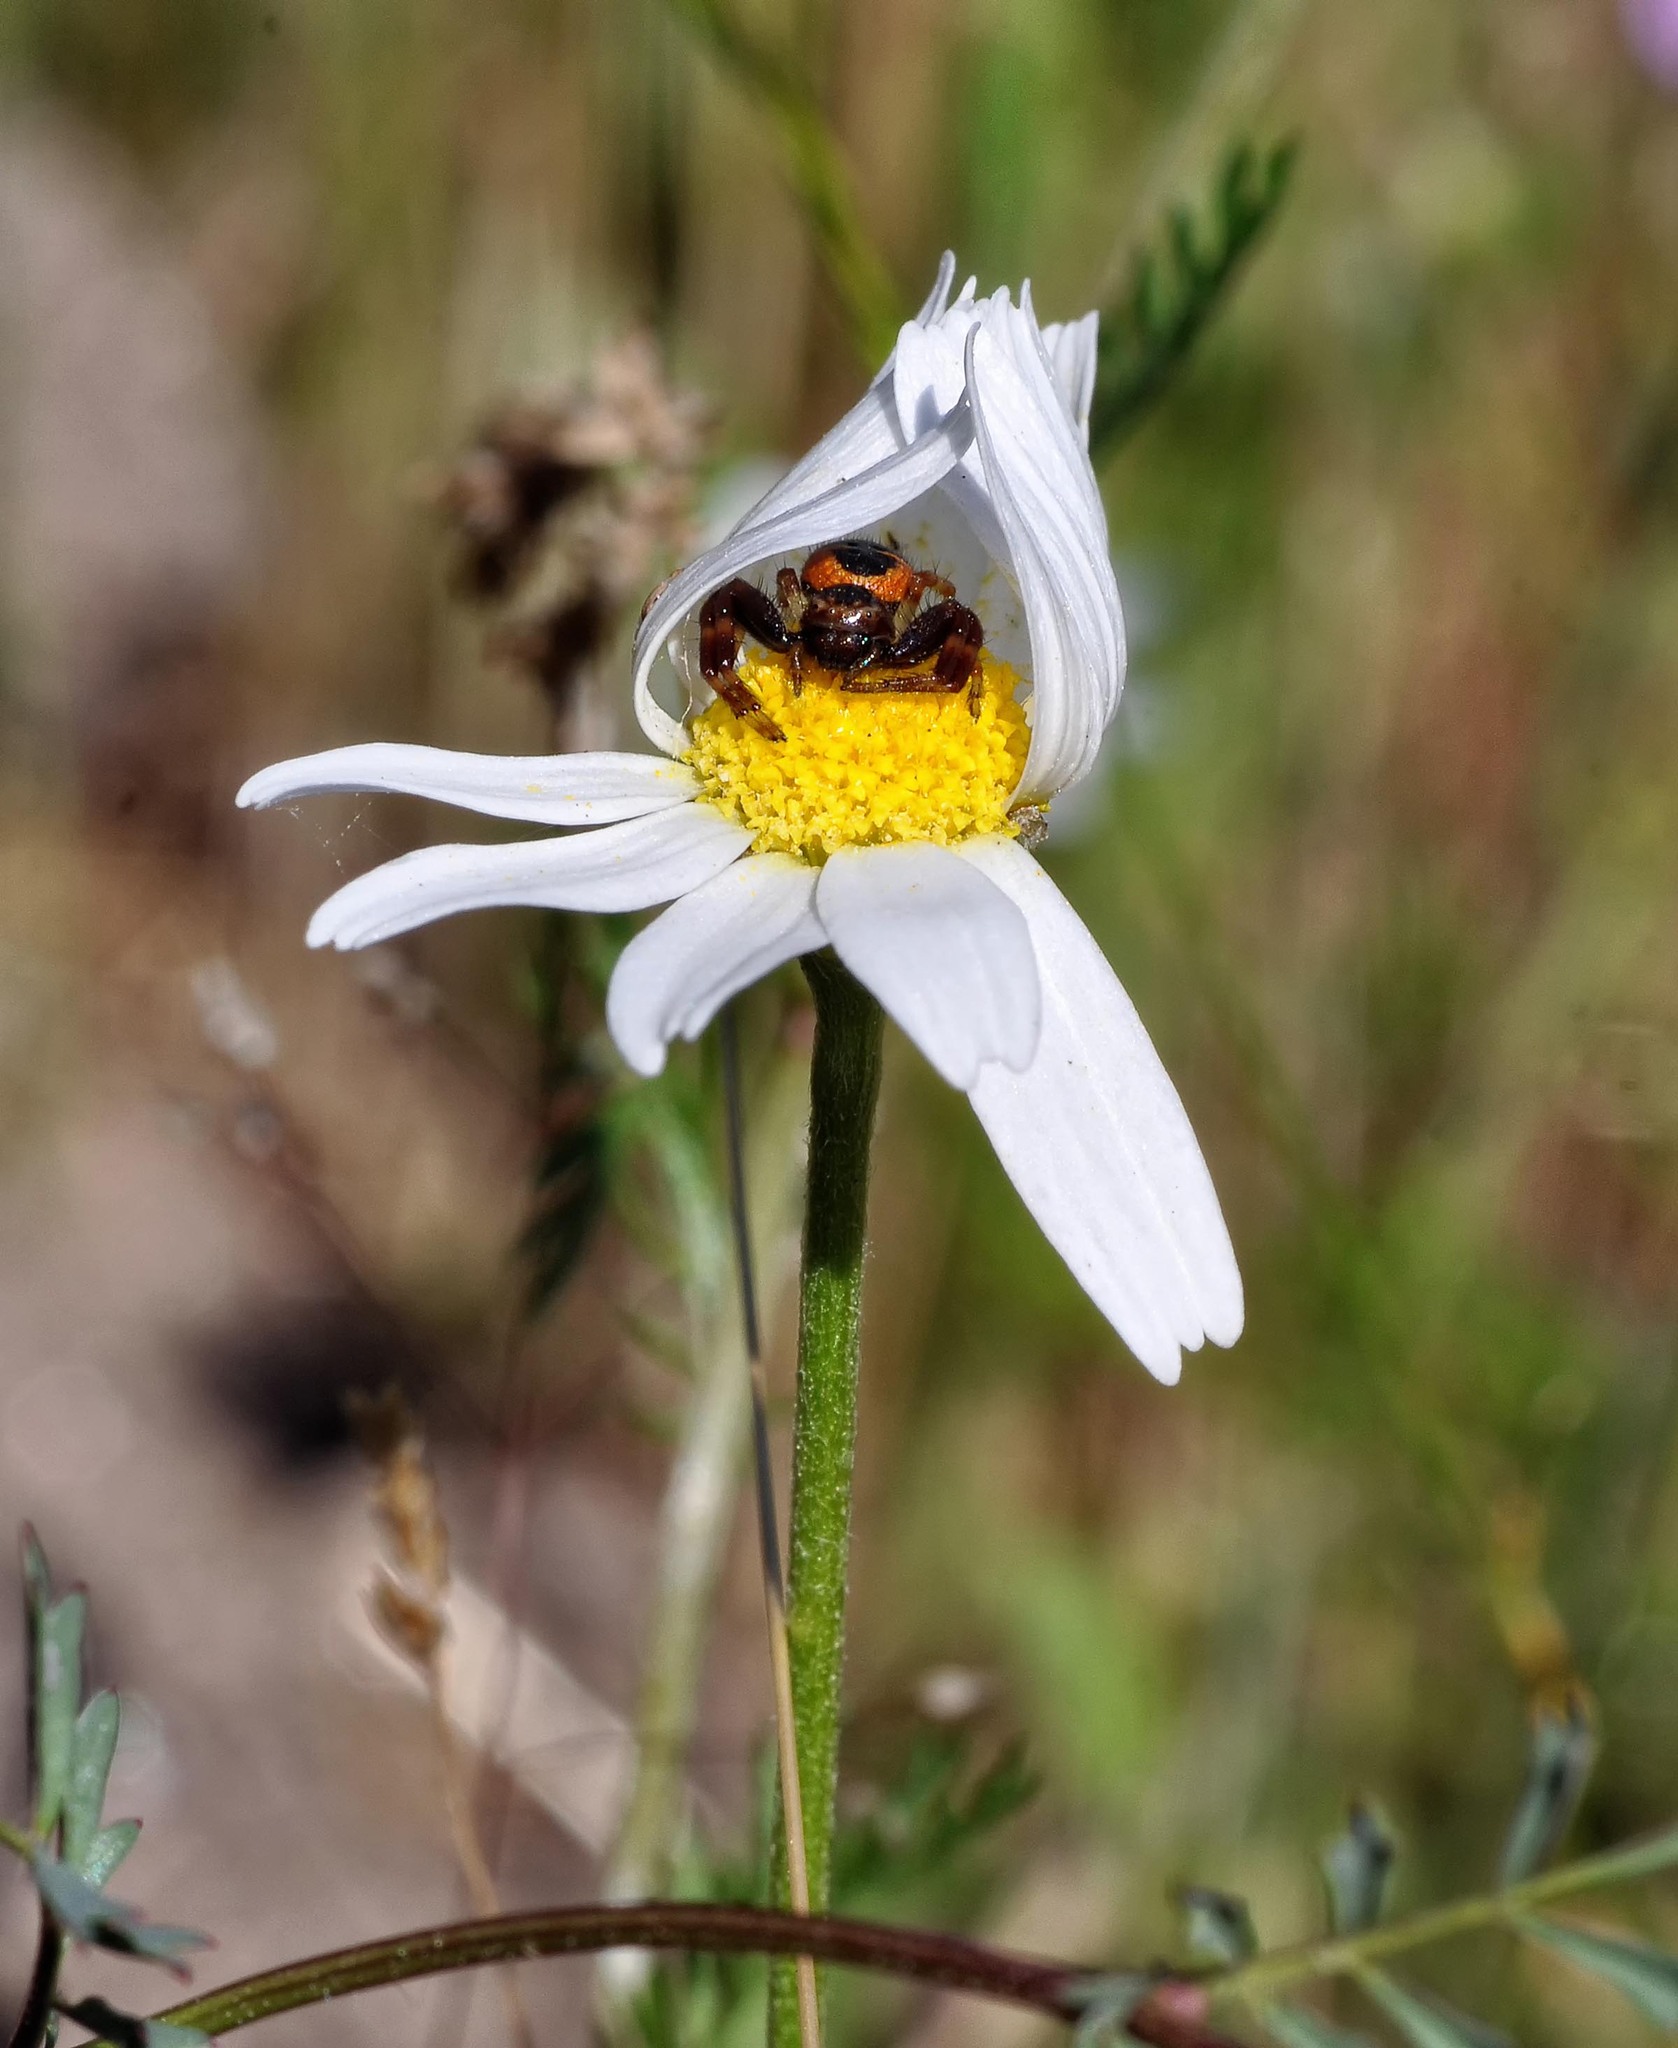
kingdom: Animalia
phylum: Arthropoda
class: Arachnida
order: Araneae
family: Thomisidae
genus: Synema
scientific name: Synema globosum
